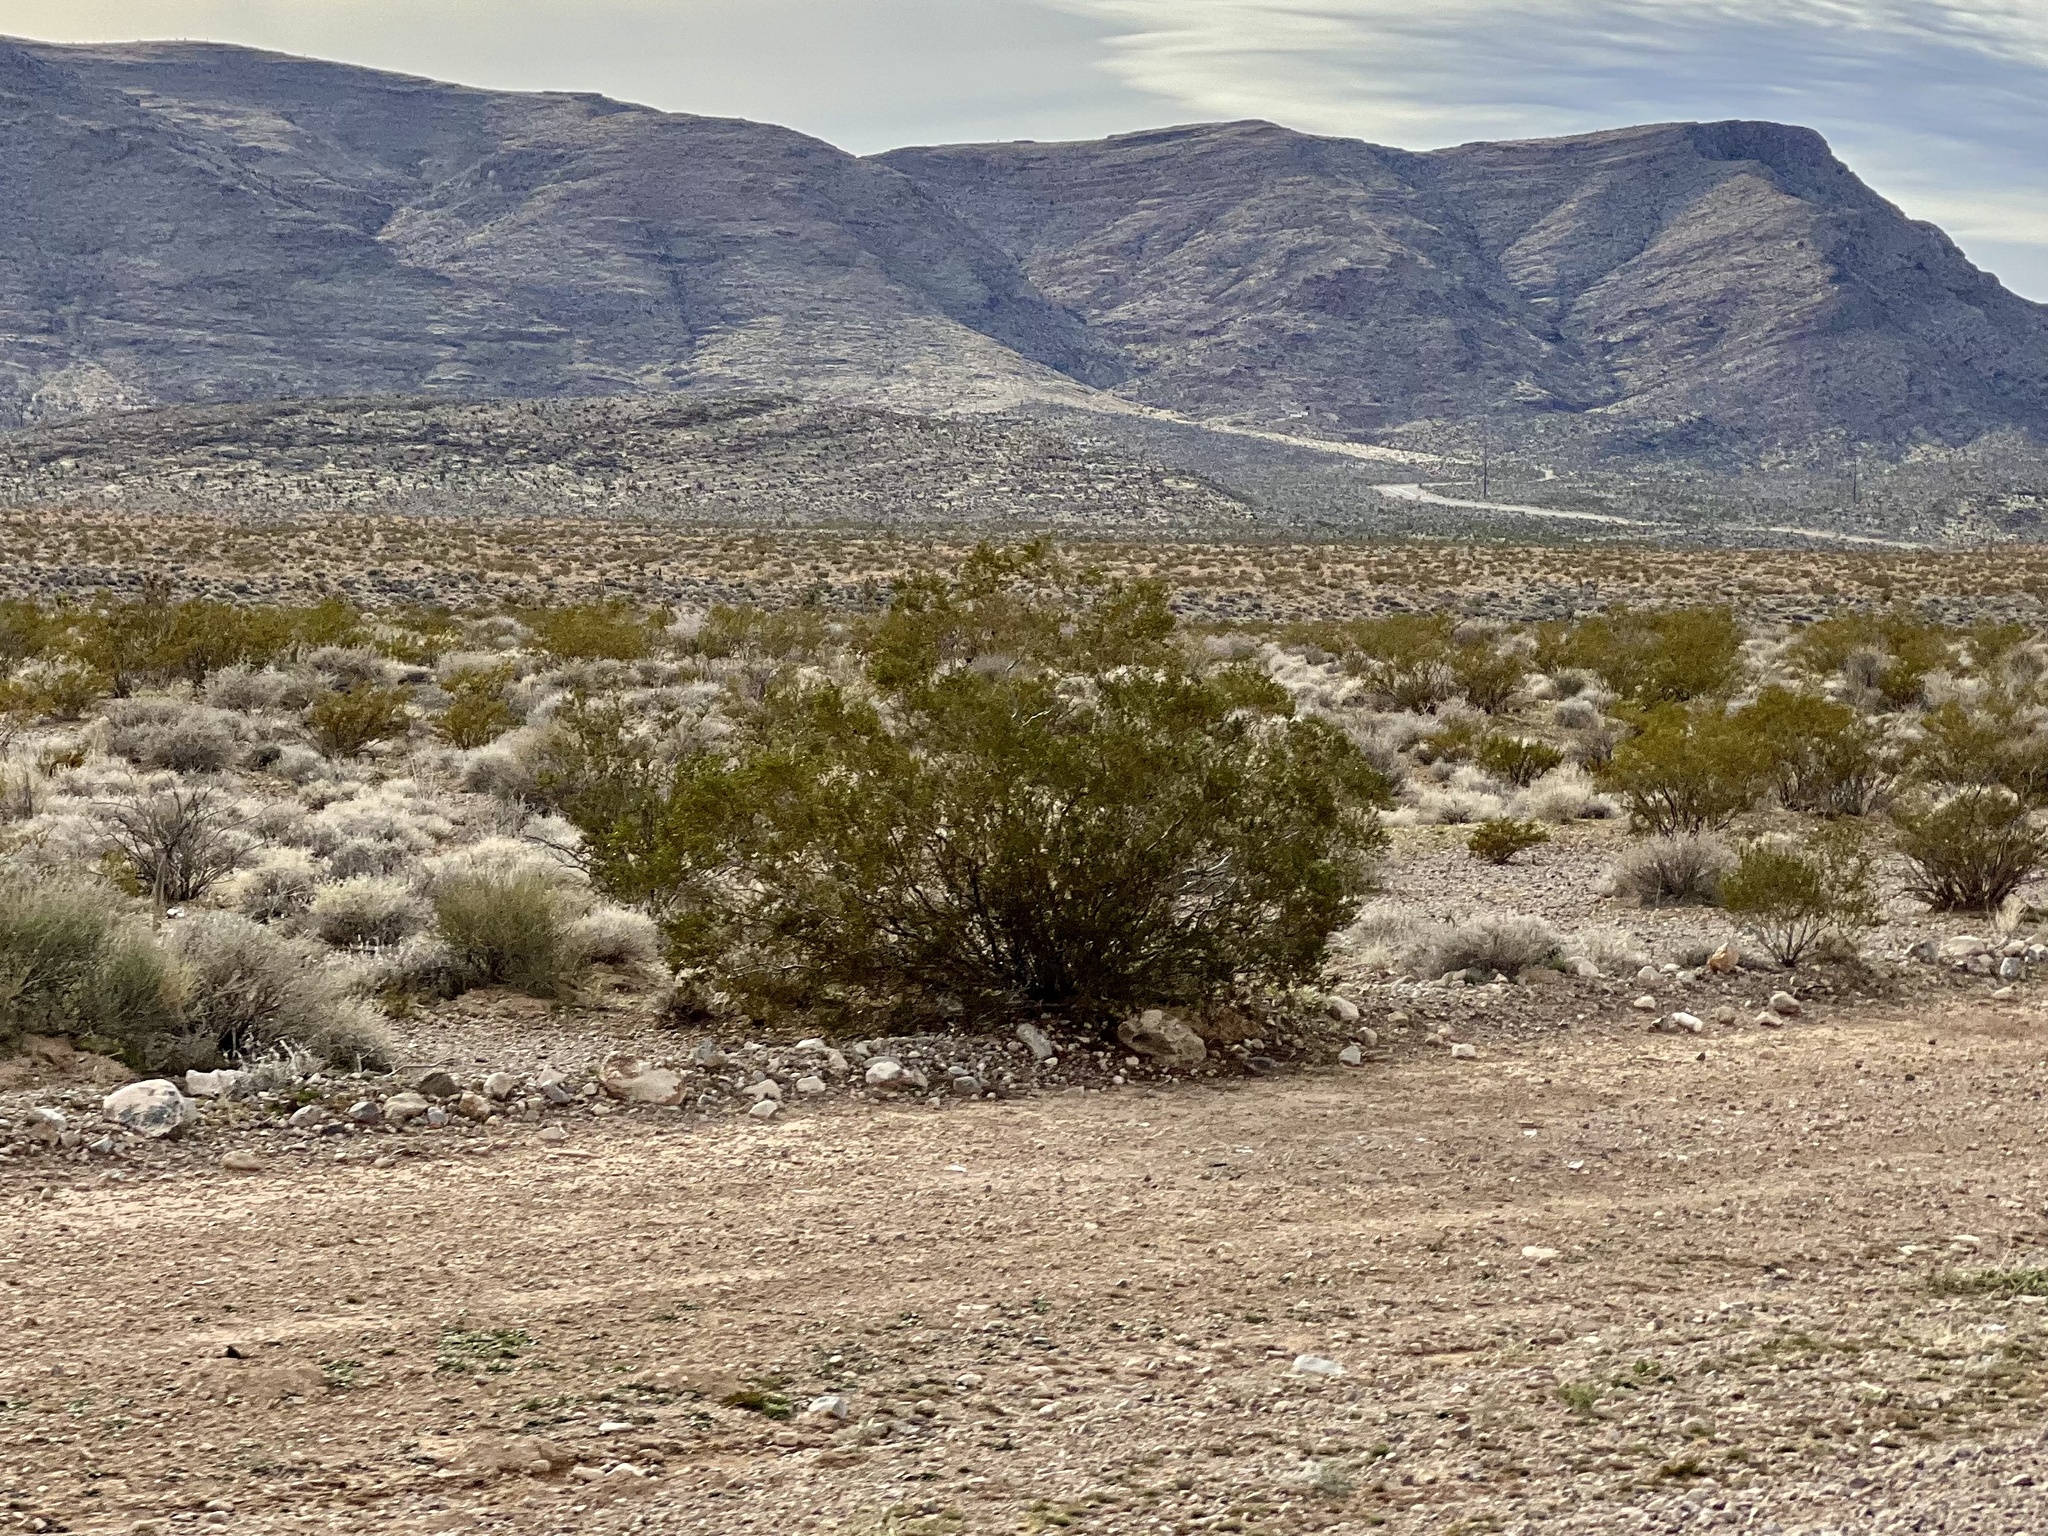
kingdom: Plantae
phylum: Tracheophyta
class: Magnoliopsida
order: Zygophyllales
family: Zygophyllaceae
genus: Larrea
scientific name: Larrea tridentata
